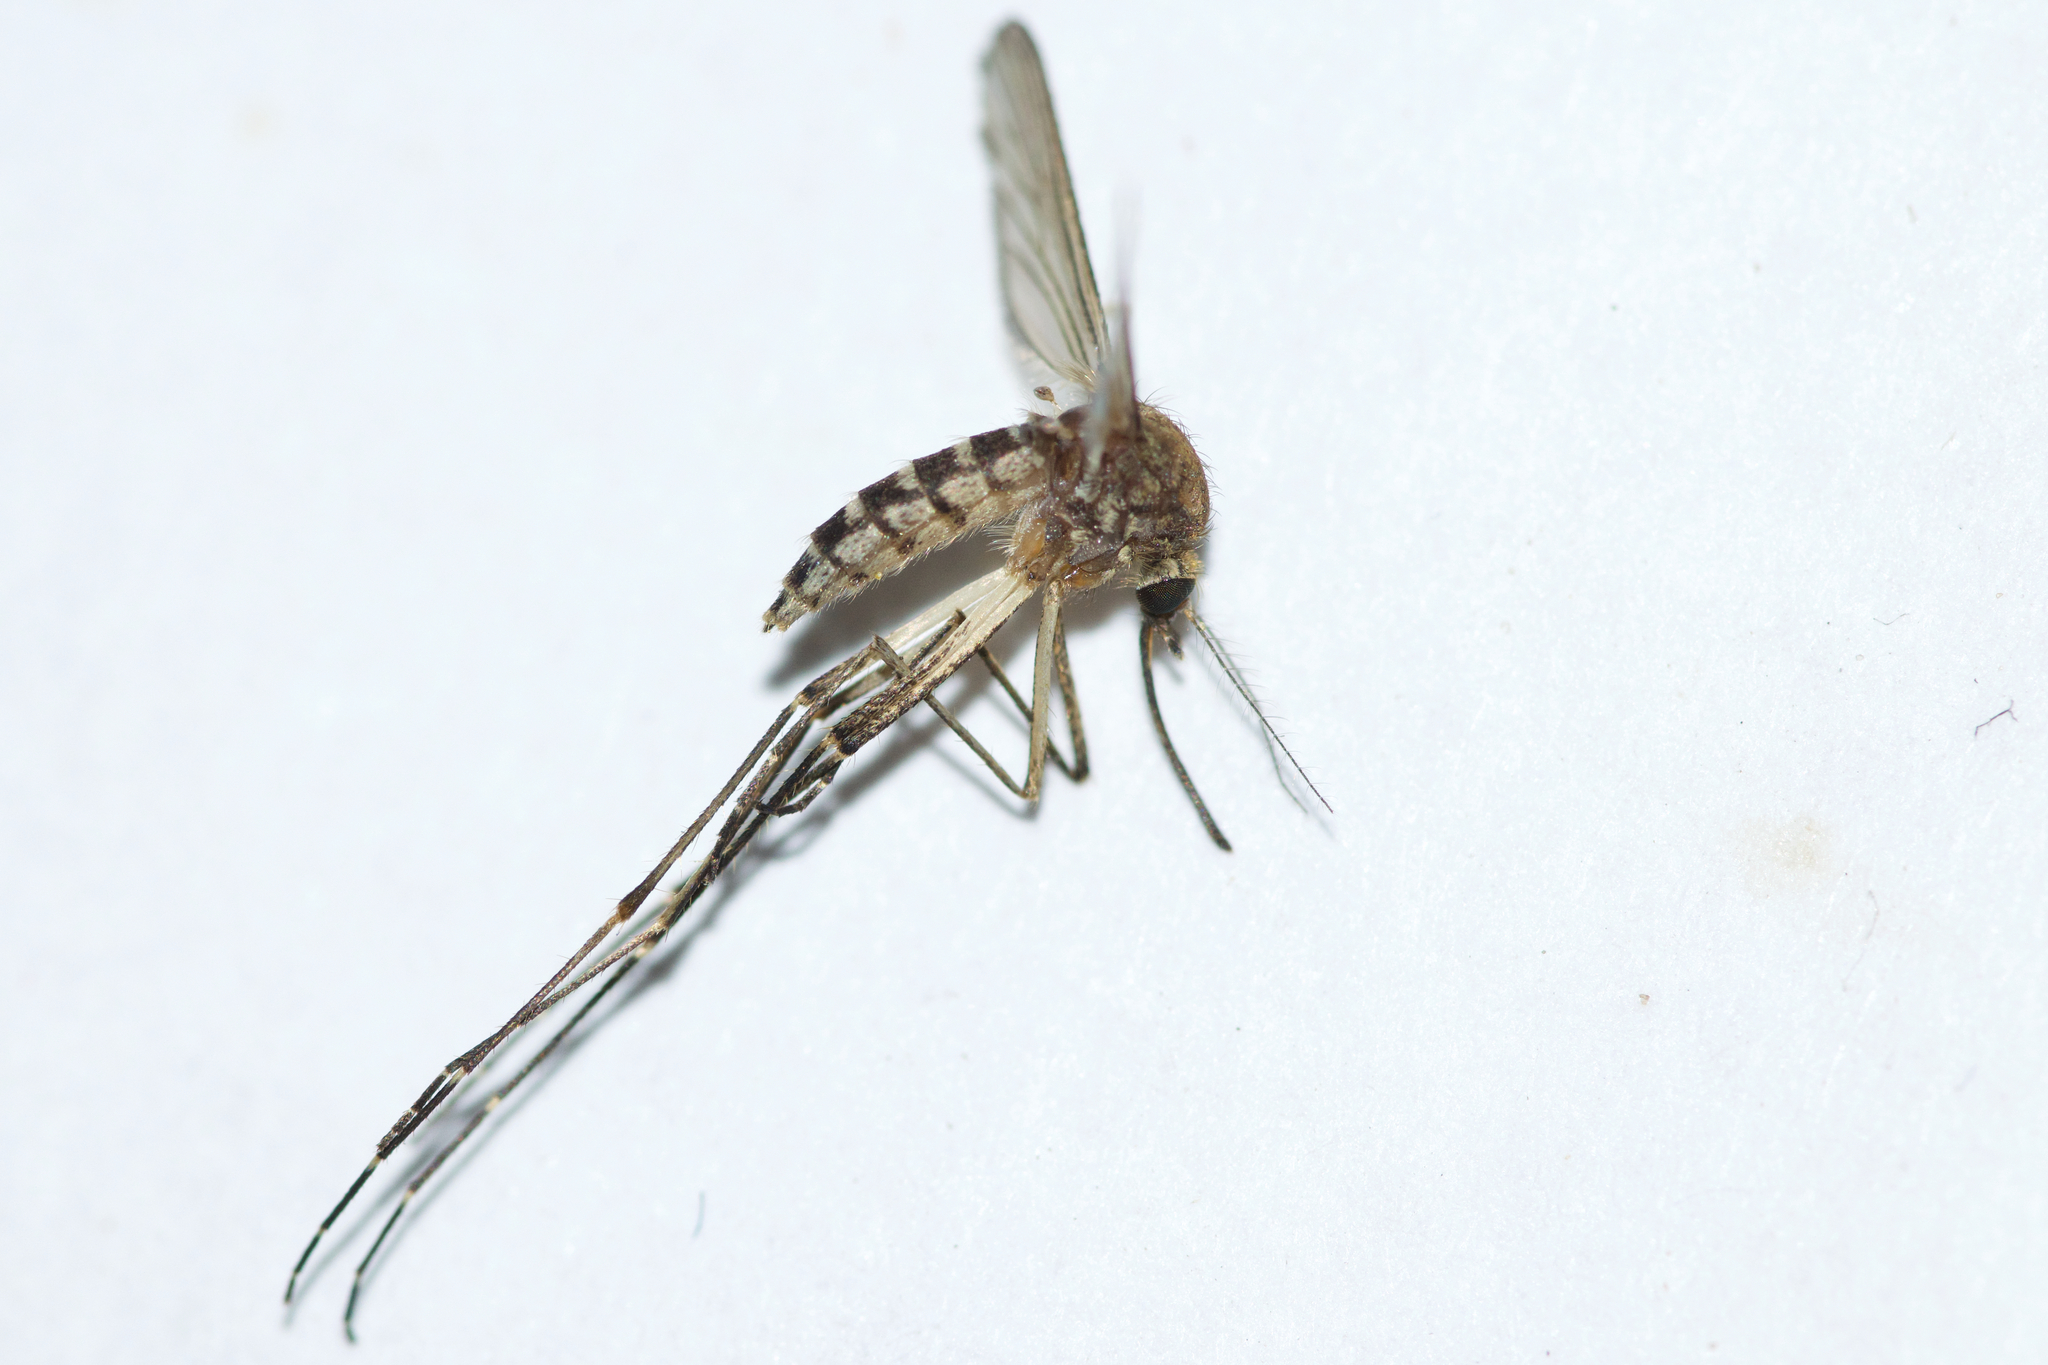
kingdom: Animalia
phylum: Arthropoda
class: Insecta
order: Diptera
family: Culicidae
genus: Aedes
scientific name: Aedes vexans
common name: Inland floodwater mosquito
